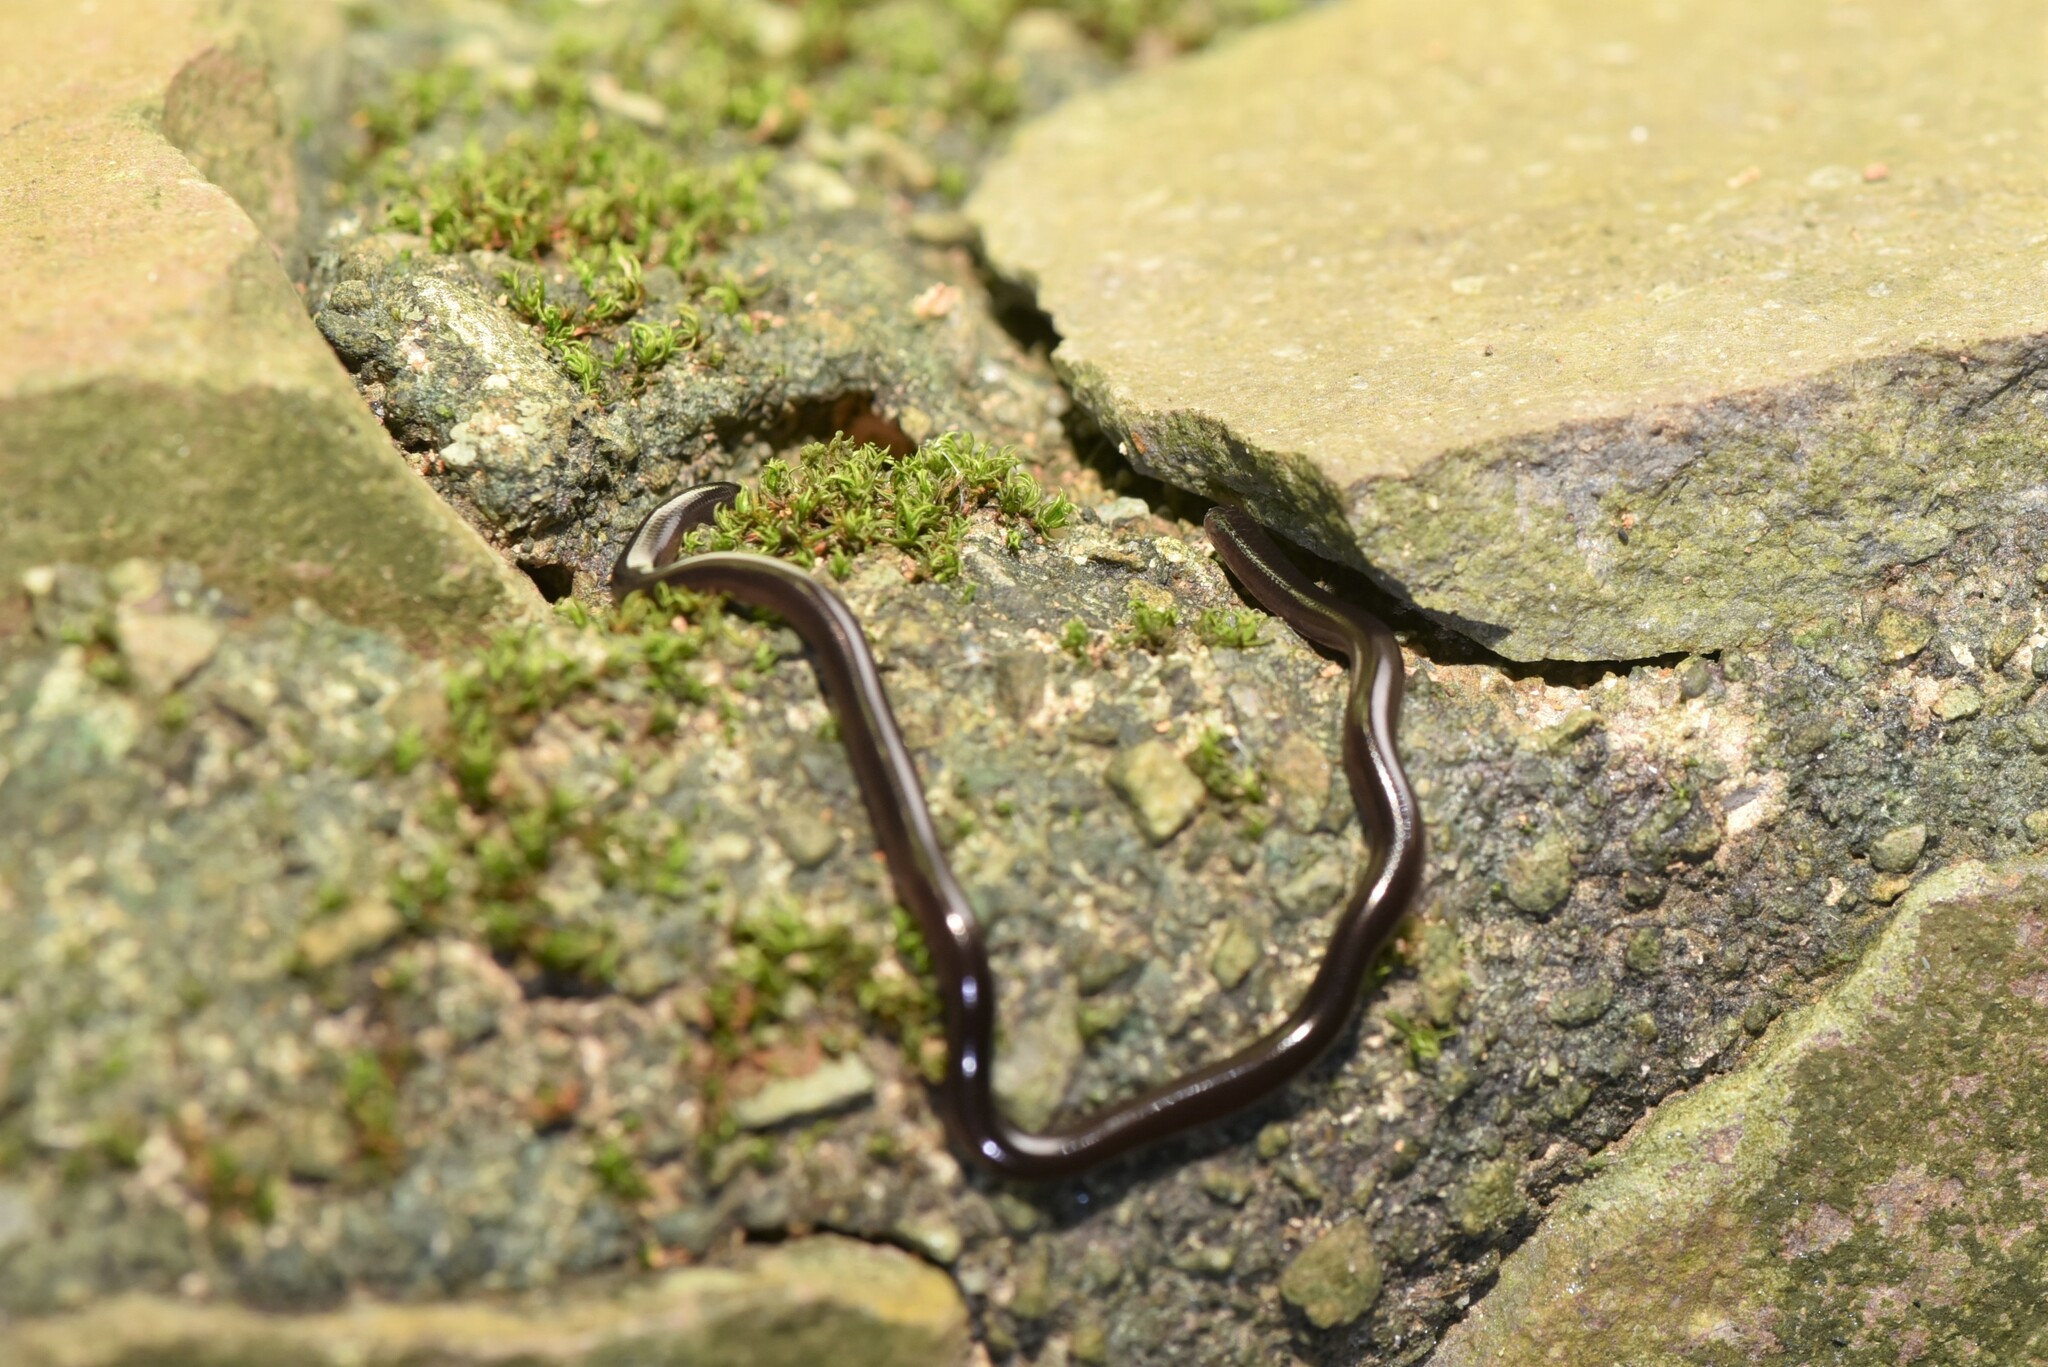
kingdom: Animalia
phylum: Chordata
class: Squamata
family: Typhlopidae
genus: Indotyphlops
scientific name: Indotyphlops braminus
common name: Brahminy blindsnake
